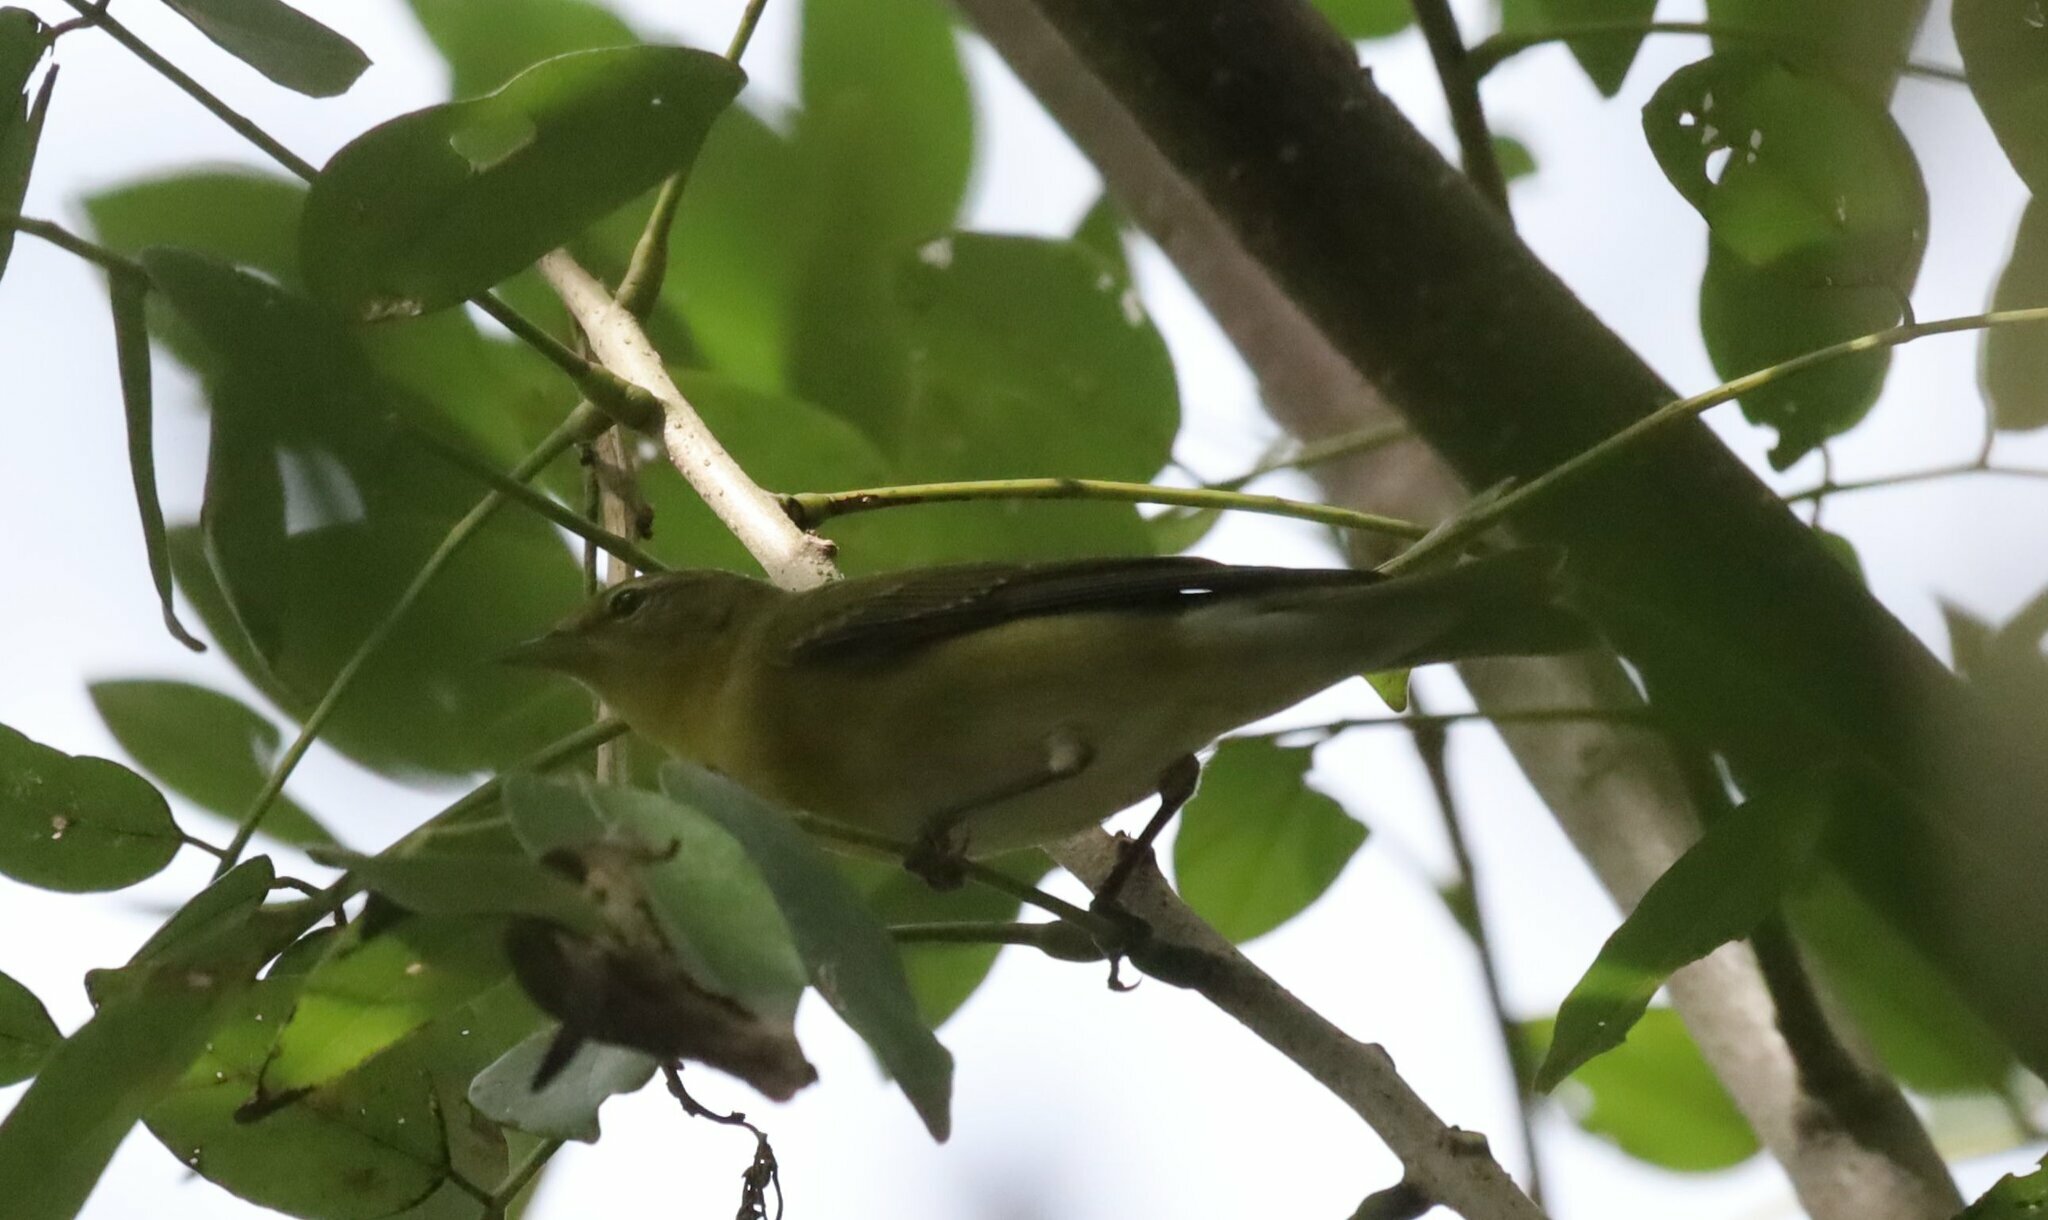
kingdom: Animalia
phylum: Chordata
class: Aves
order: Passeriformes
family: Parulidae
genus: Leiothlypis
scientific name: Leiothlypis peregrina
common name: Tennessee warbler
